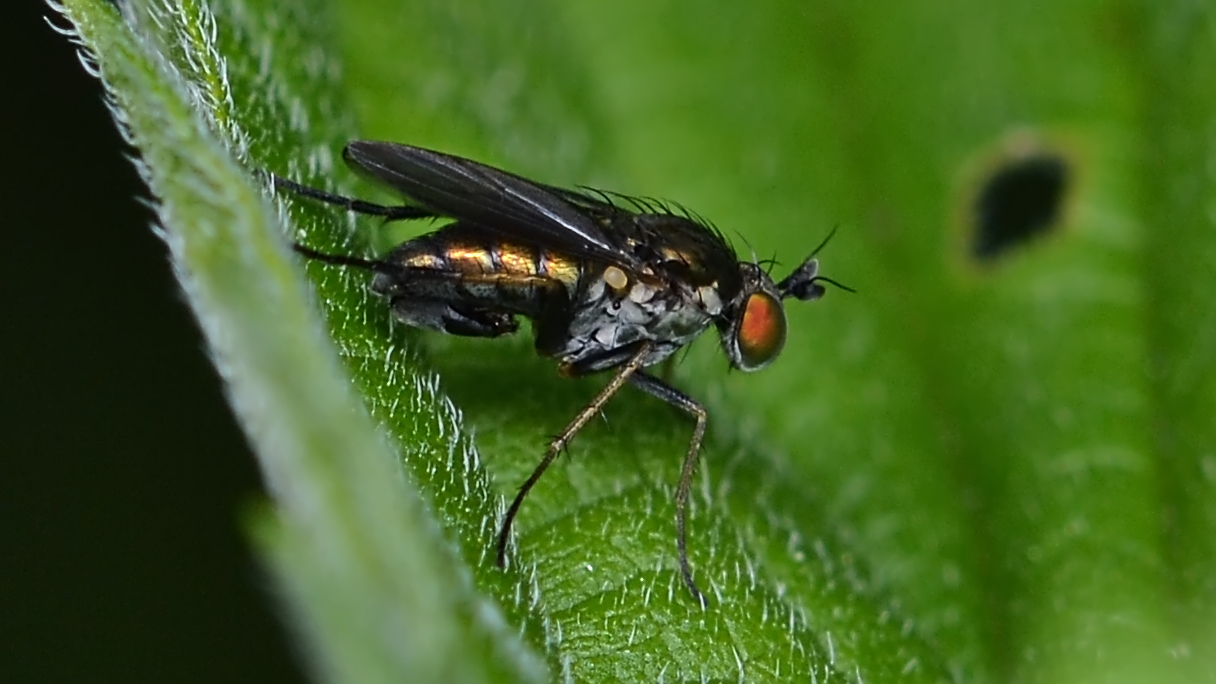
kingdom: Animalia
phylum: Arthropoda
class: Insecta
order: Diptera
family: Dolichopodidae
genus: Gymnopternus
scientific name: Gymnopternus scotias
